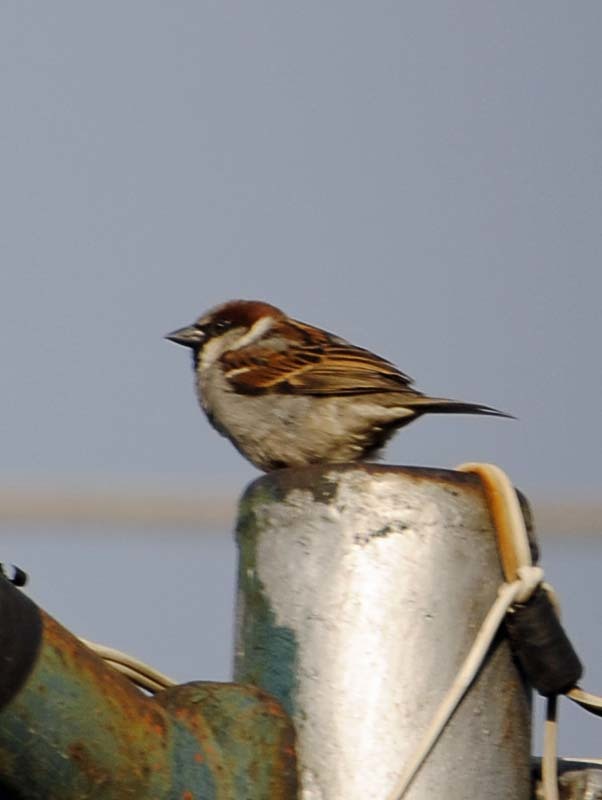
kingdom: Animalia
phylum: Chordata
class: Aves
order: Passeriformes
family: Passeridae
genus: Passer
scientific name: Passer domesticus
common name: House sparrow
